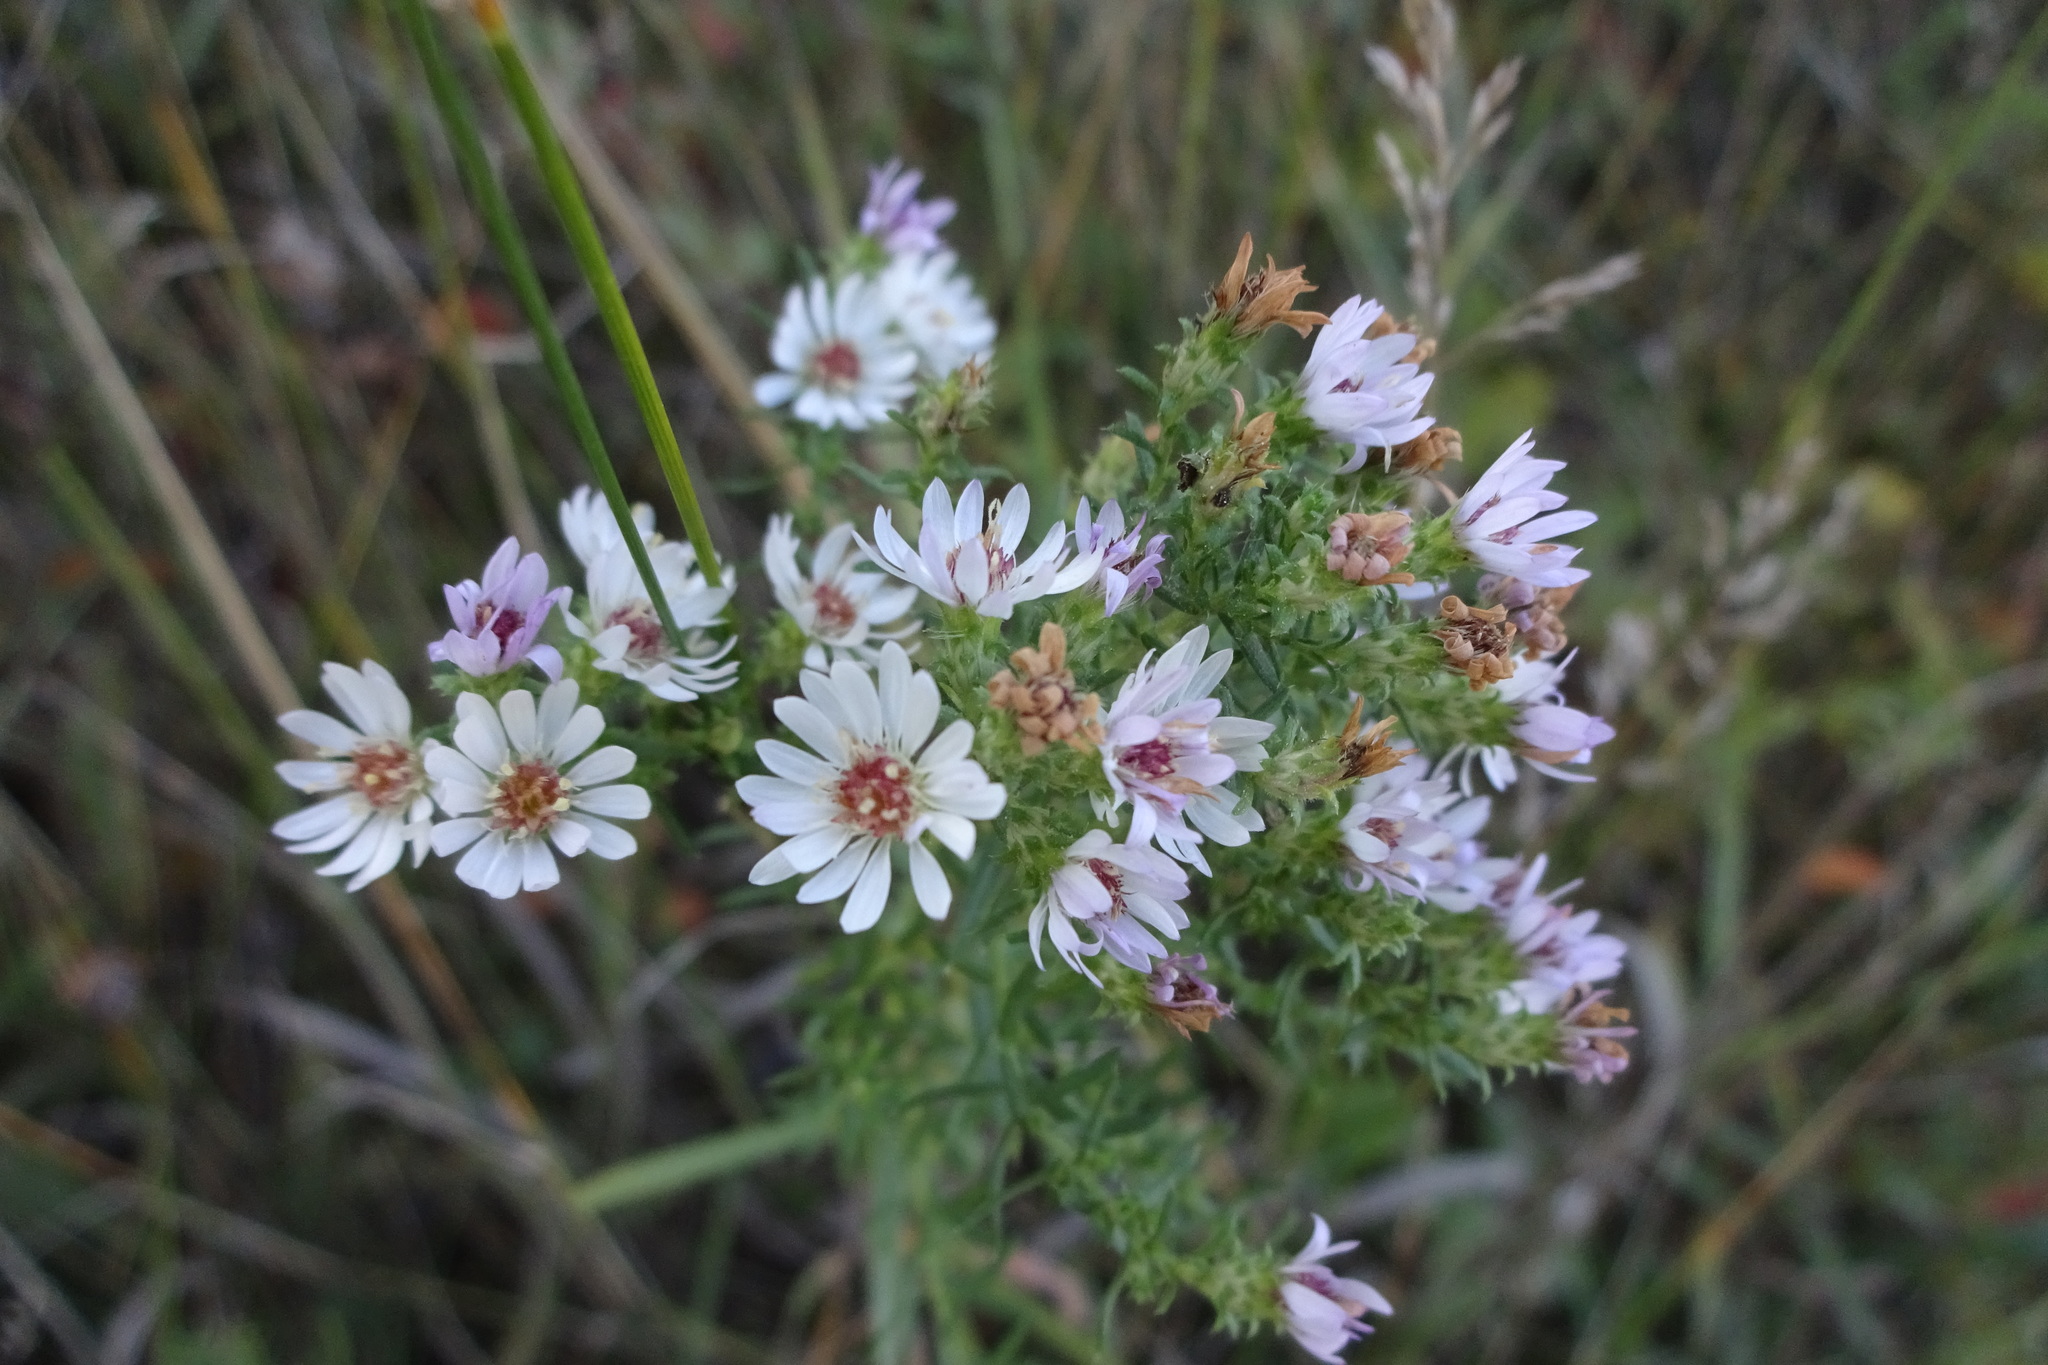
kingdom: Plantae
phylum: Tracheophyta
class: Magnoliopsida
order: Asterales
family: Asteraceae
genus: Symphyotrichum
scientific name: Symphyotrichum amethystinum
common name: Amethyst aster
